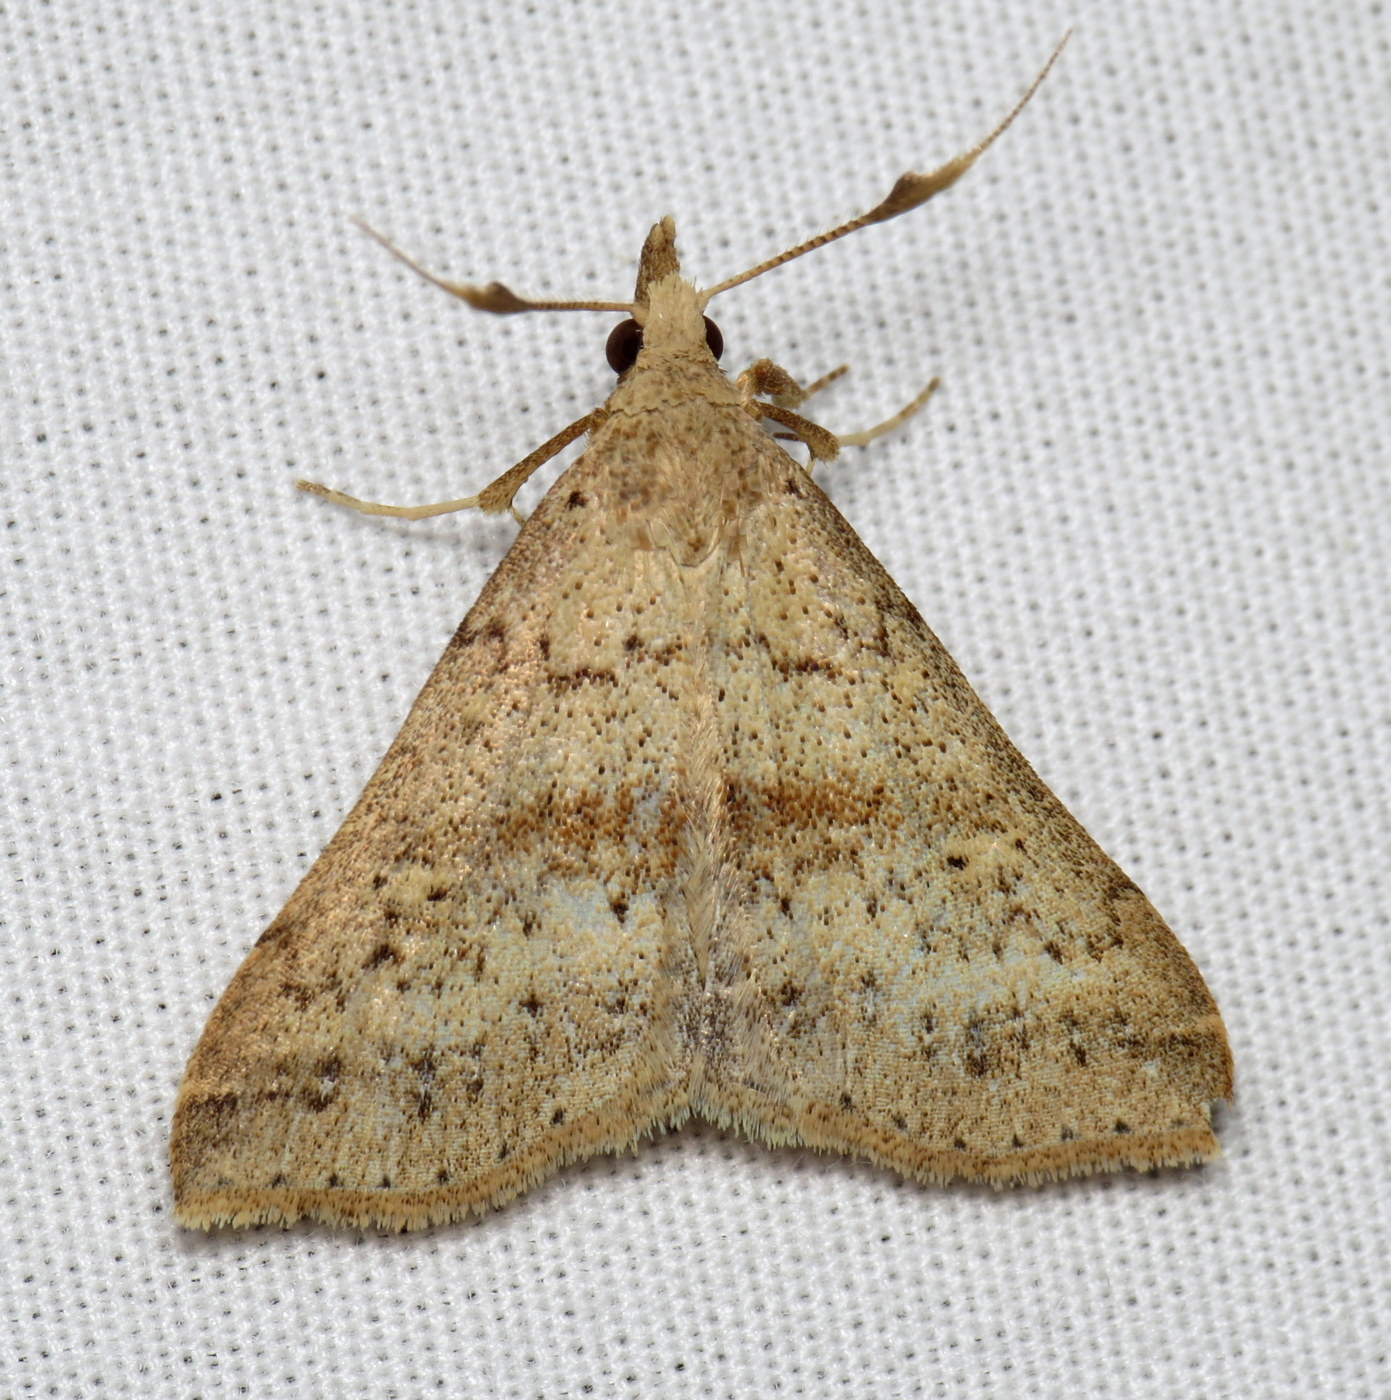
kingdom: Animalia
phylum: Arthropoda
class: Insecta
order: Lepidoptera
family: Erebidae
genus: Renia
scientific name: Renia salusalis
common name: Dotted renia moth
